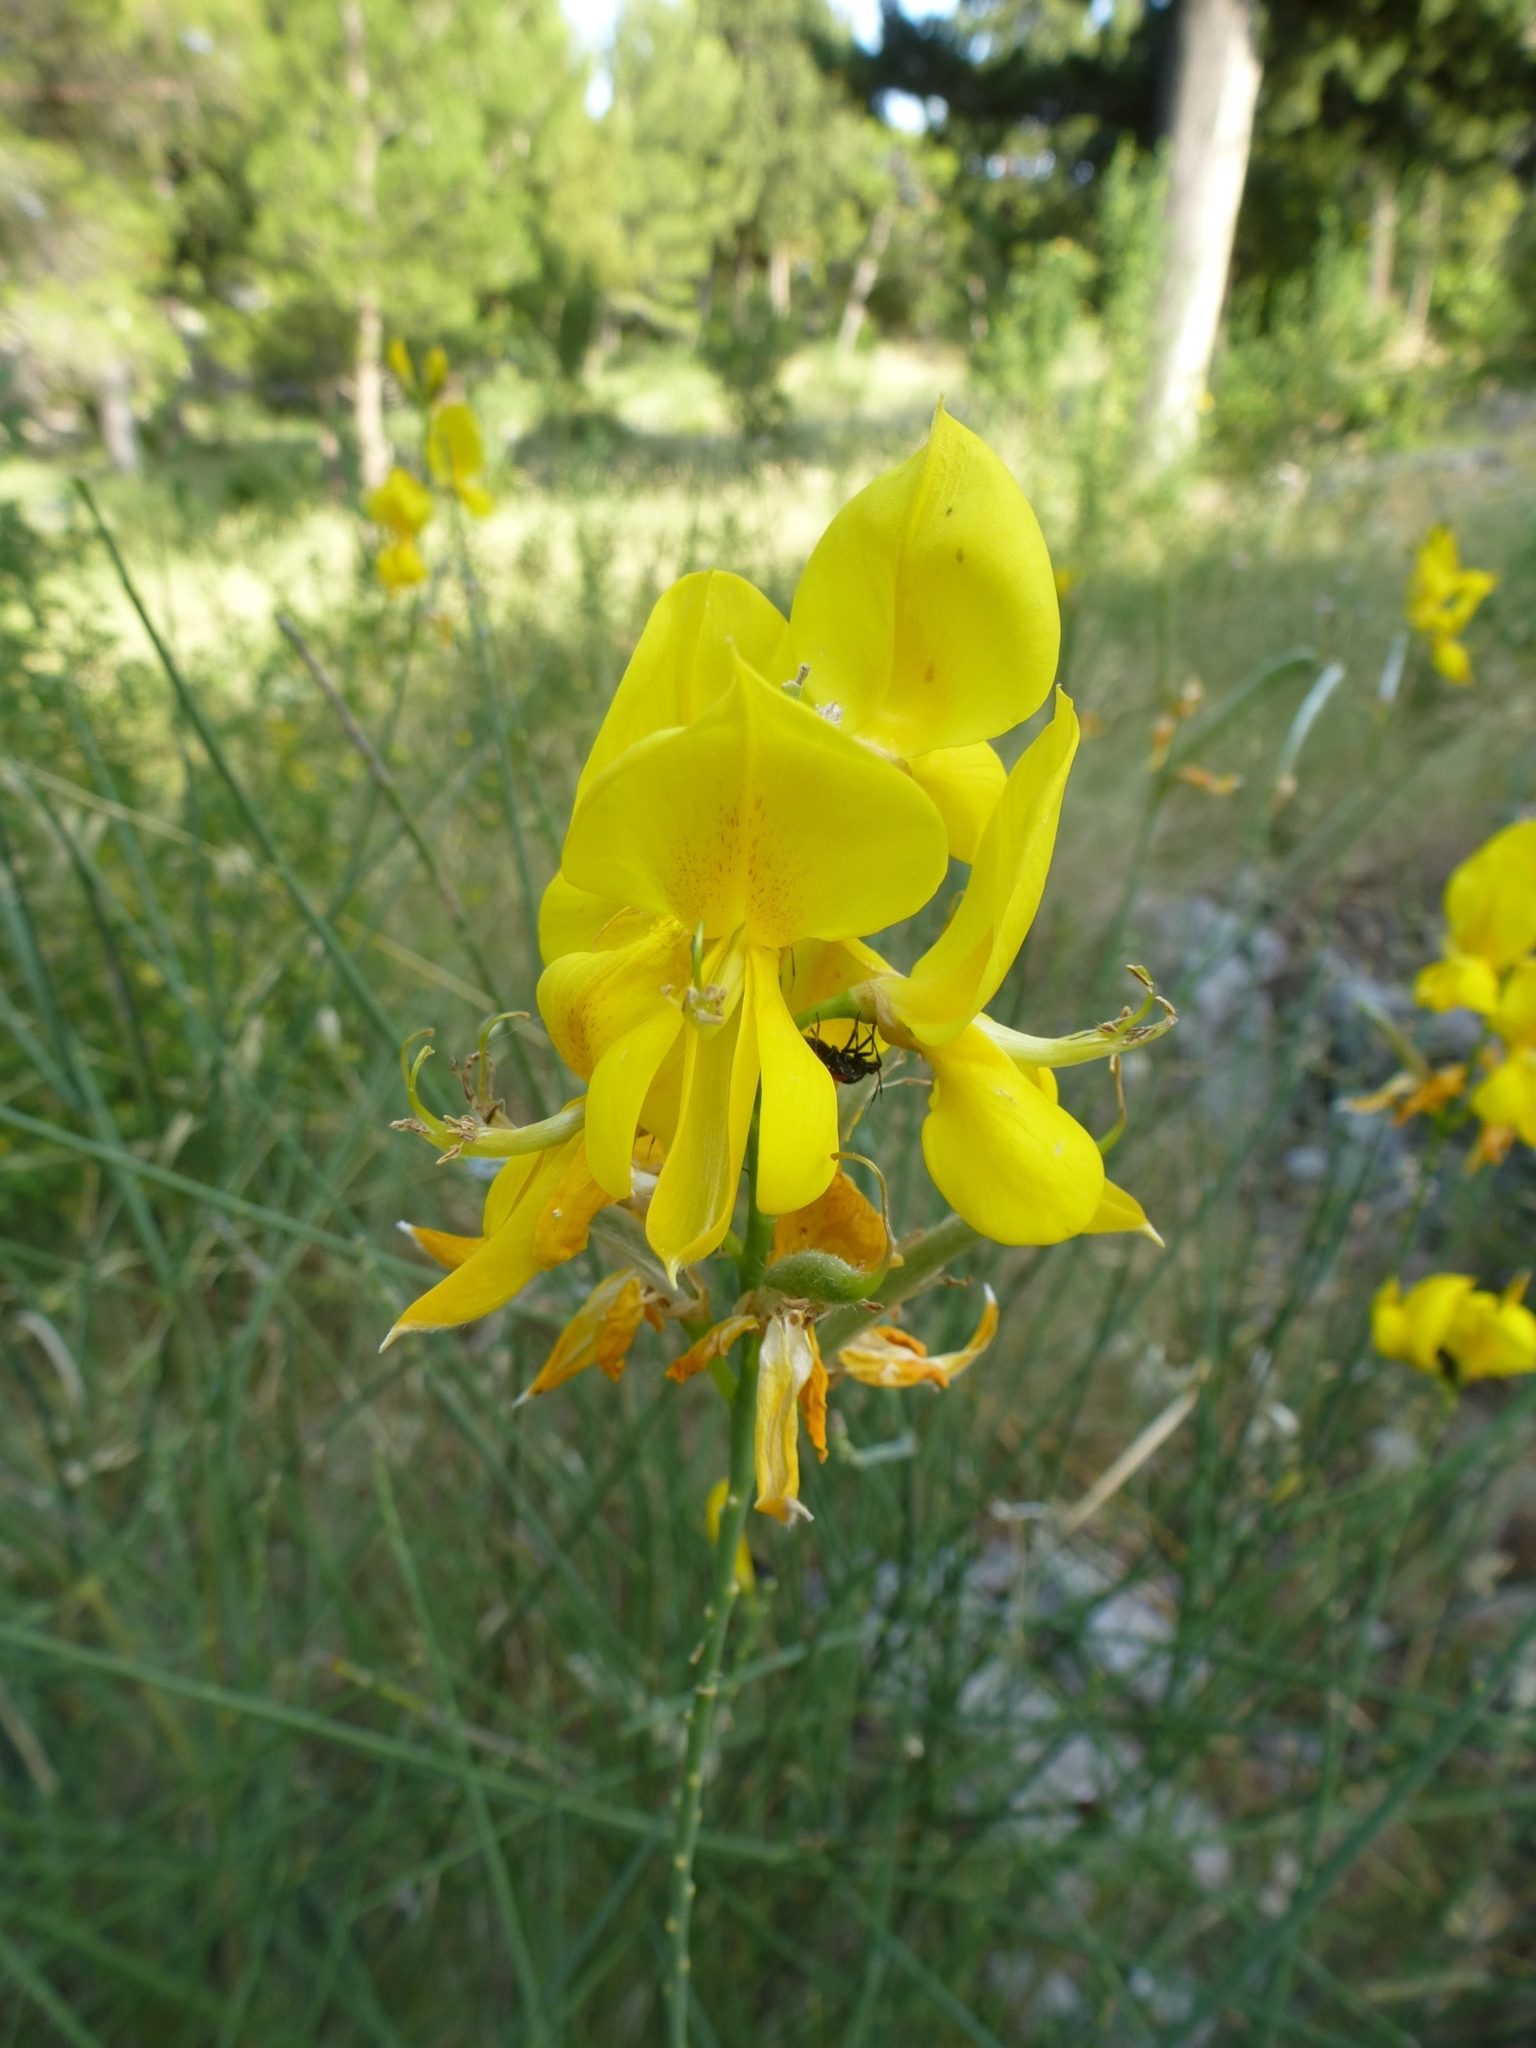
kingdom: Plantae
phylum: Tracheophyta
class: Magnoliopsida
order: Fabales
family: Fabaceae
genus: Spartium
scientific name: Spartium junceum
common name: Spanish broom
